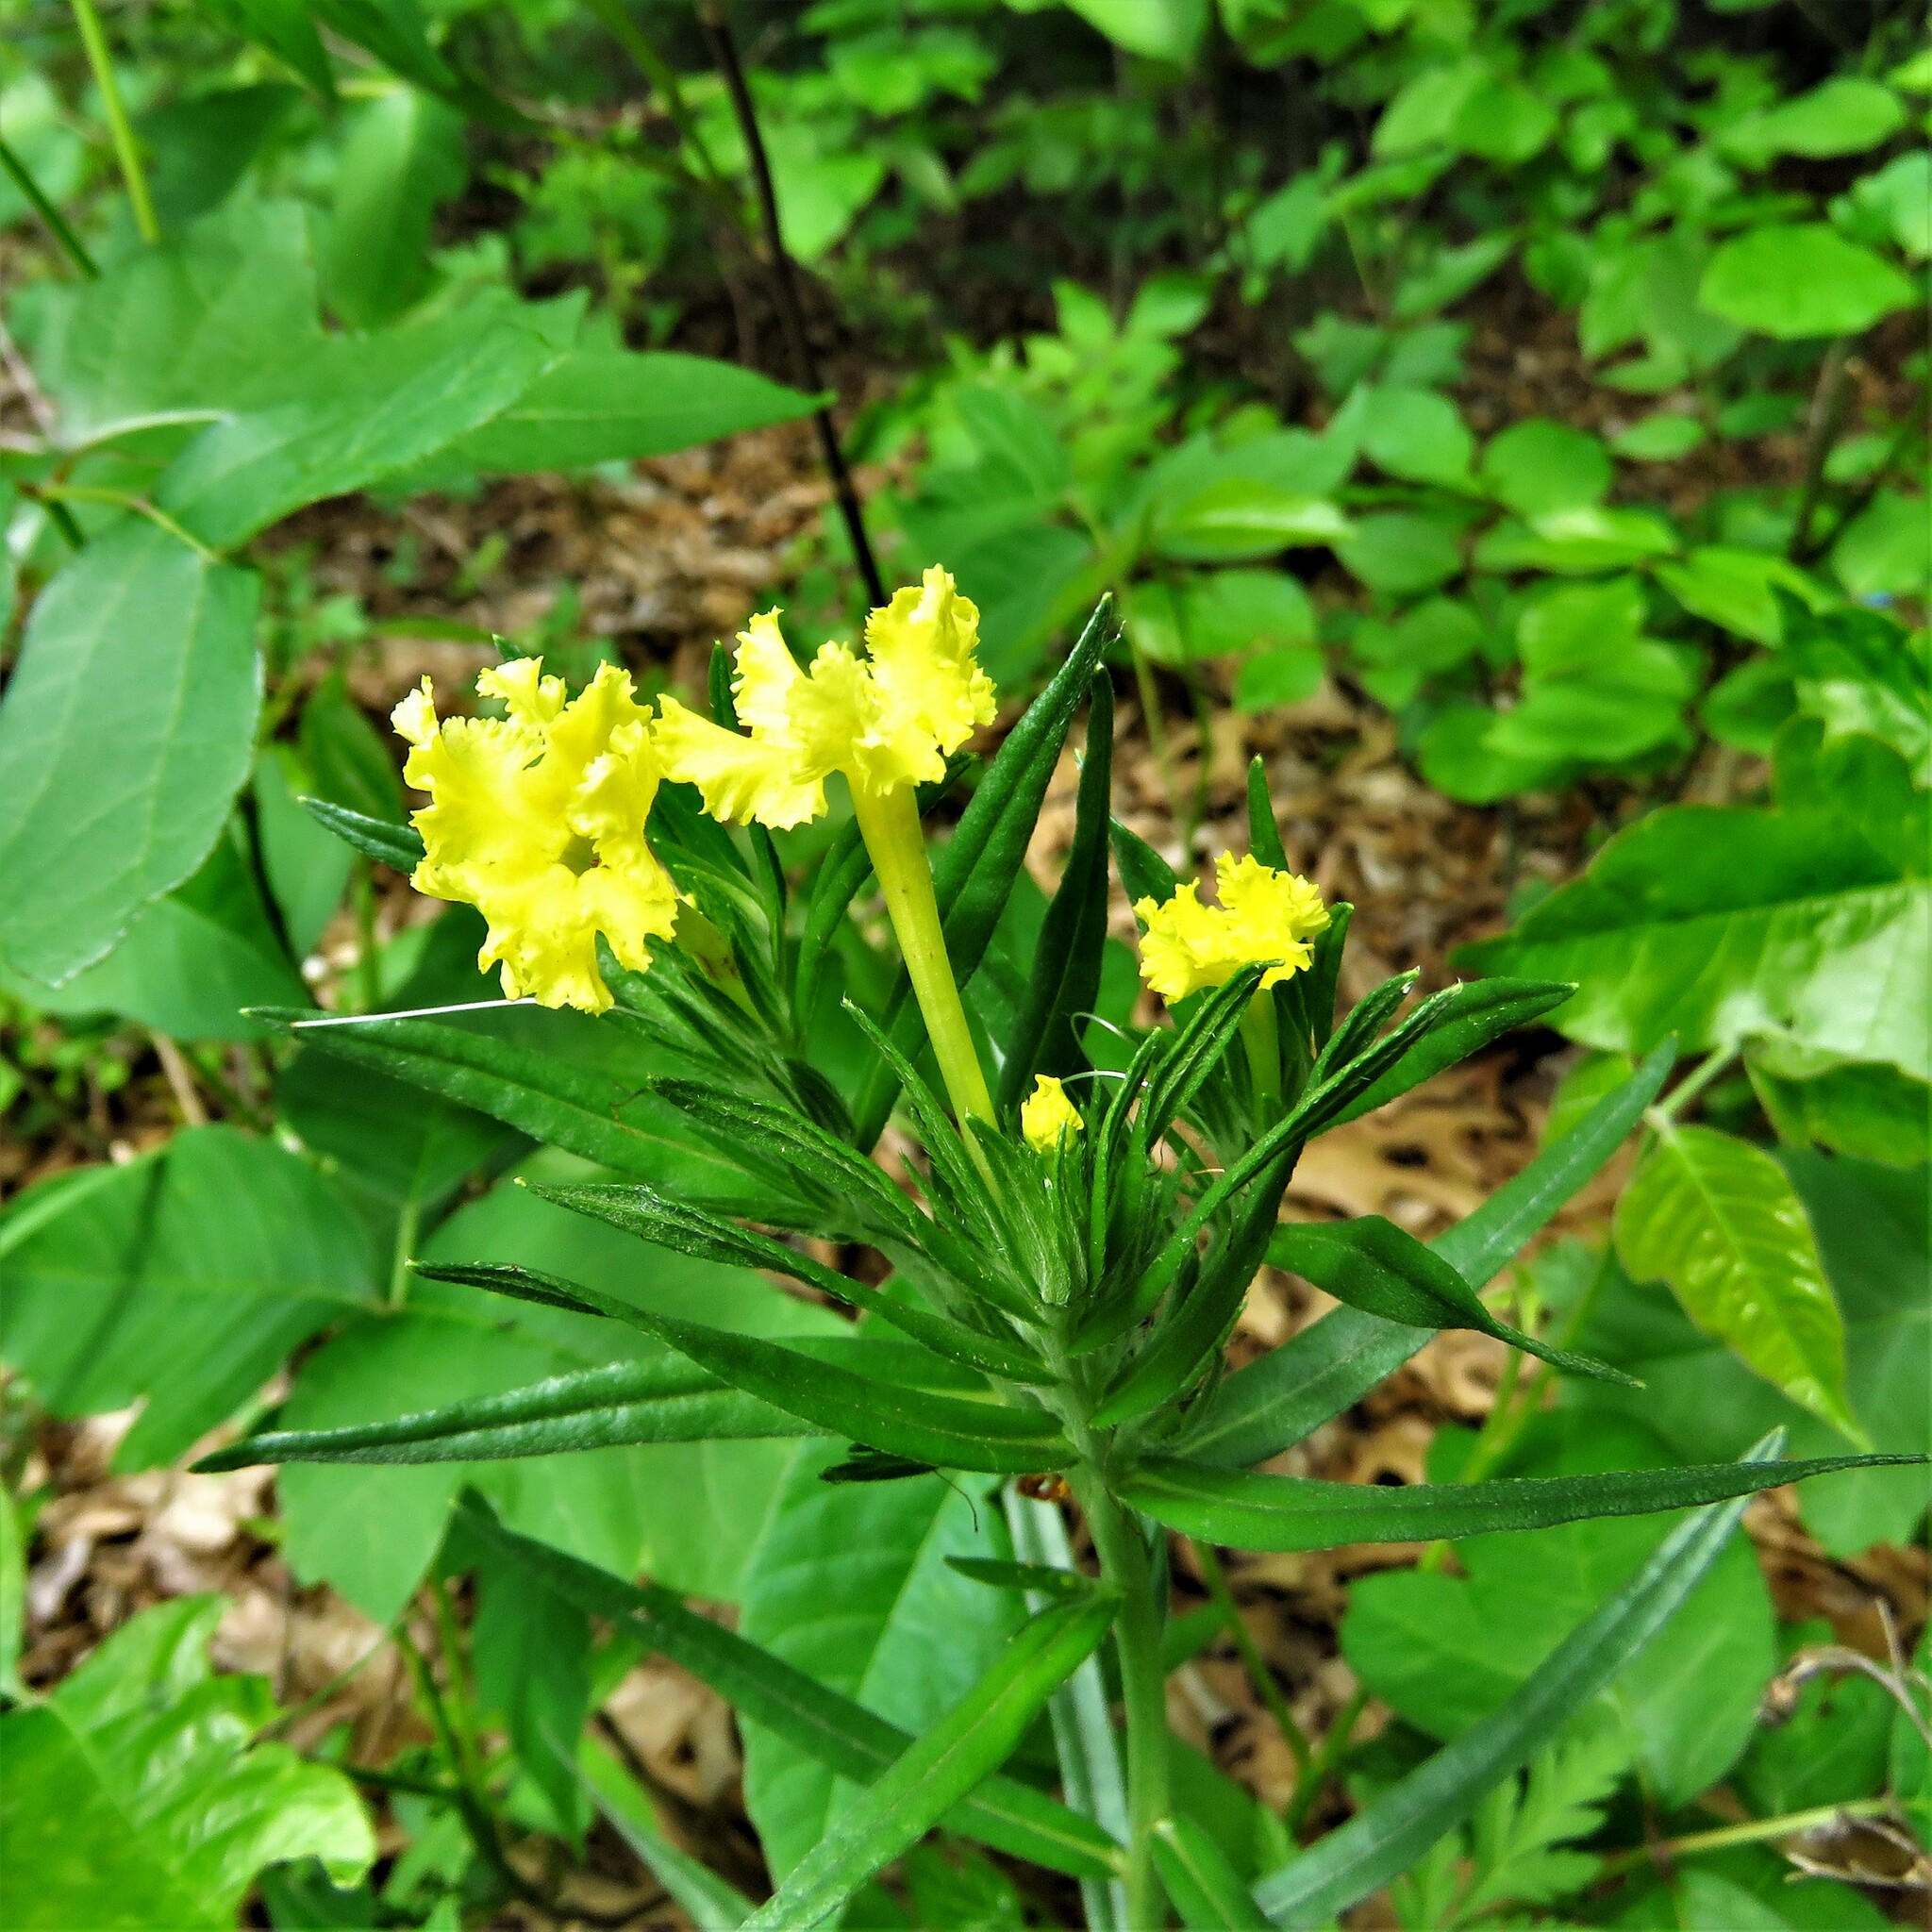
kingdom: Plantae
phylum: Tracheophyta
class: Magnoliopsida
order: Boraginales
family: Boraginaceae
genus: Lithospermum
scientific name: Lithospermum incisum
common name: Fringed gromwell
